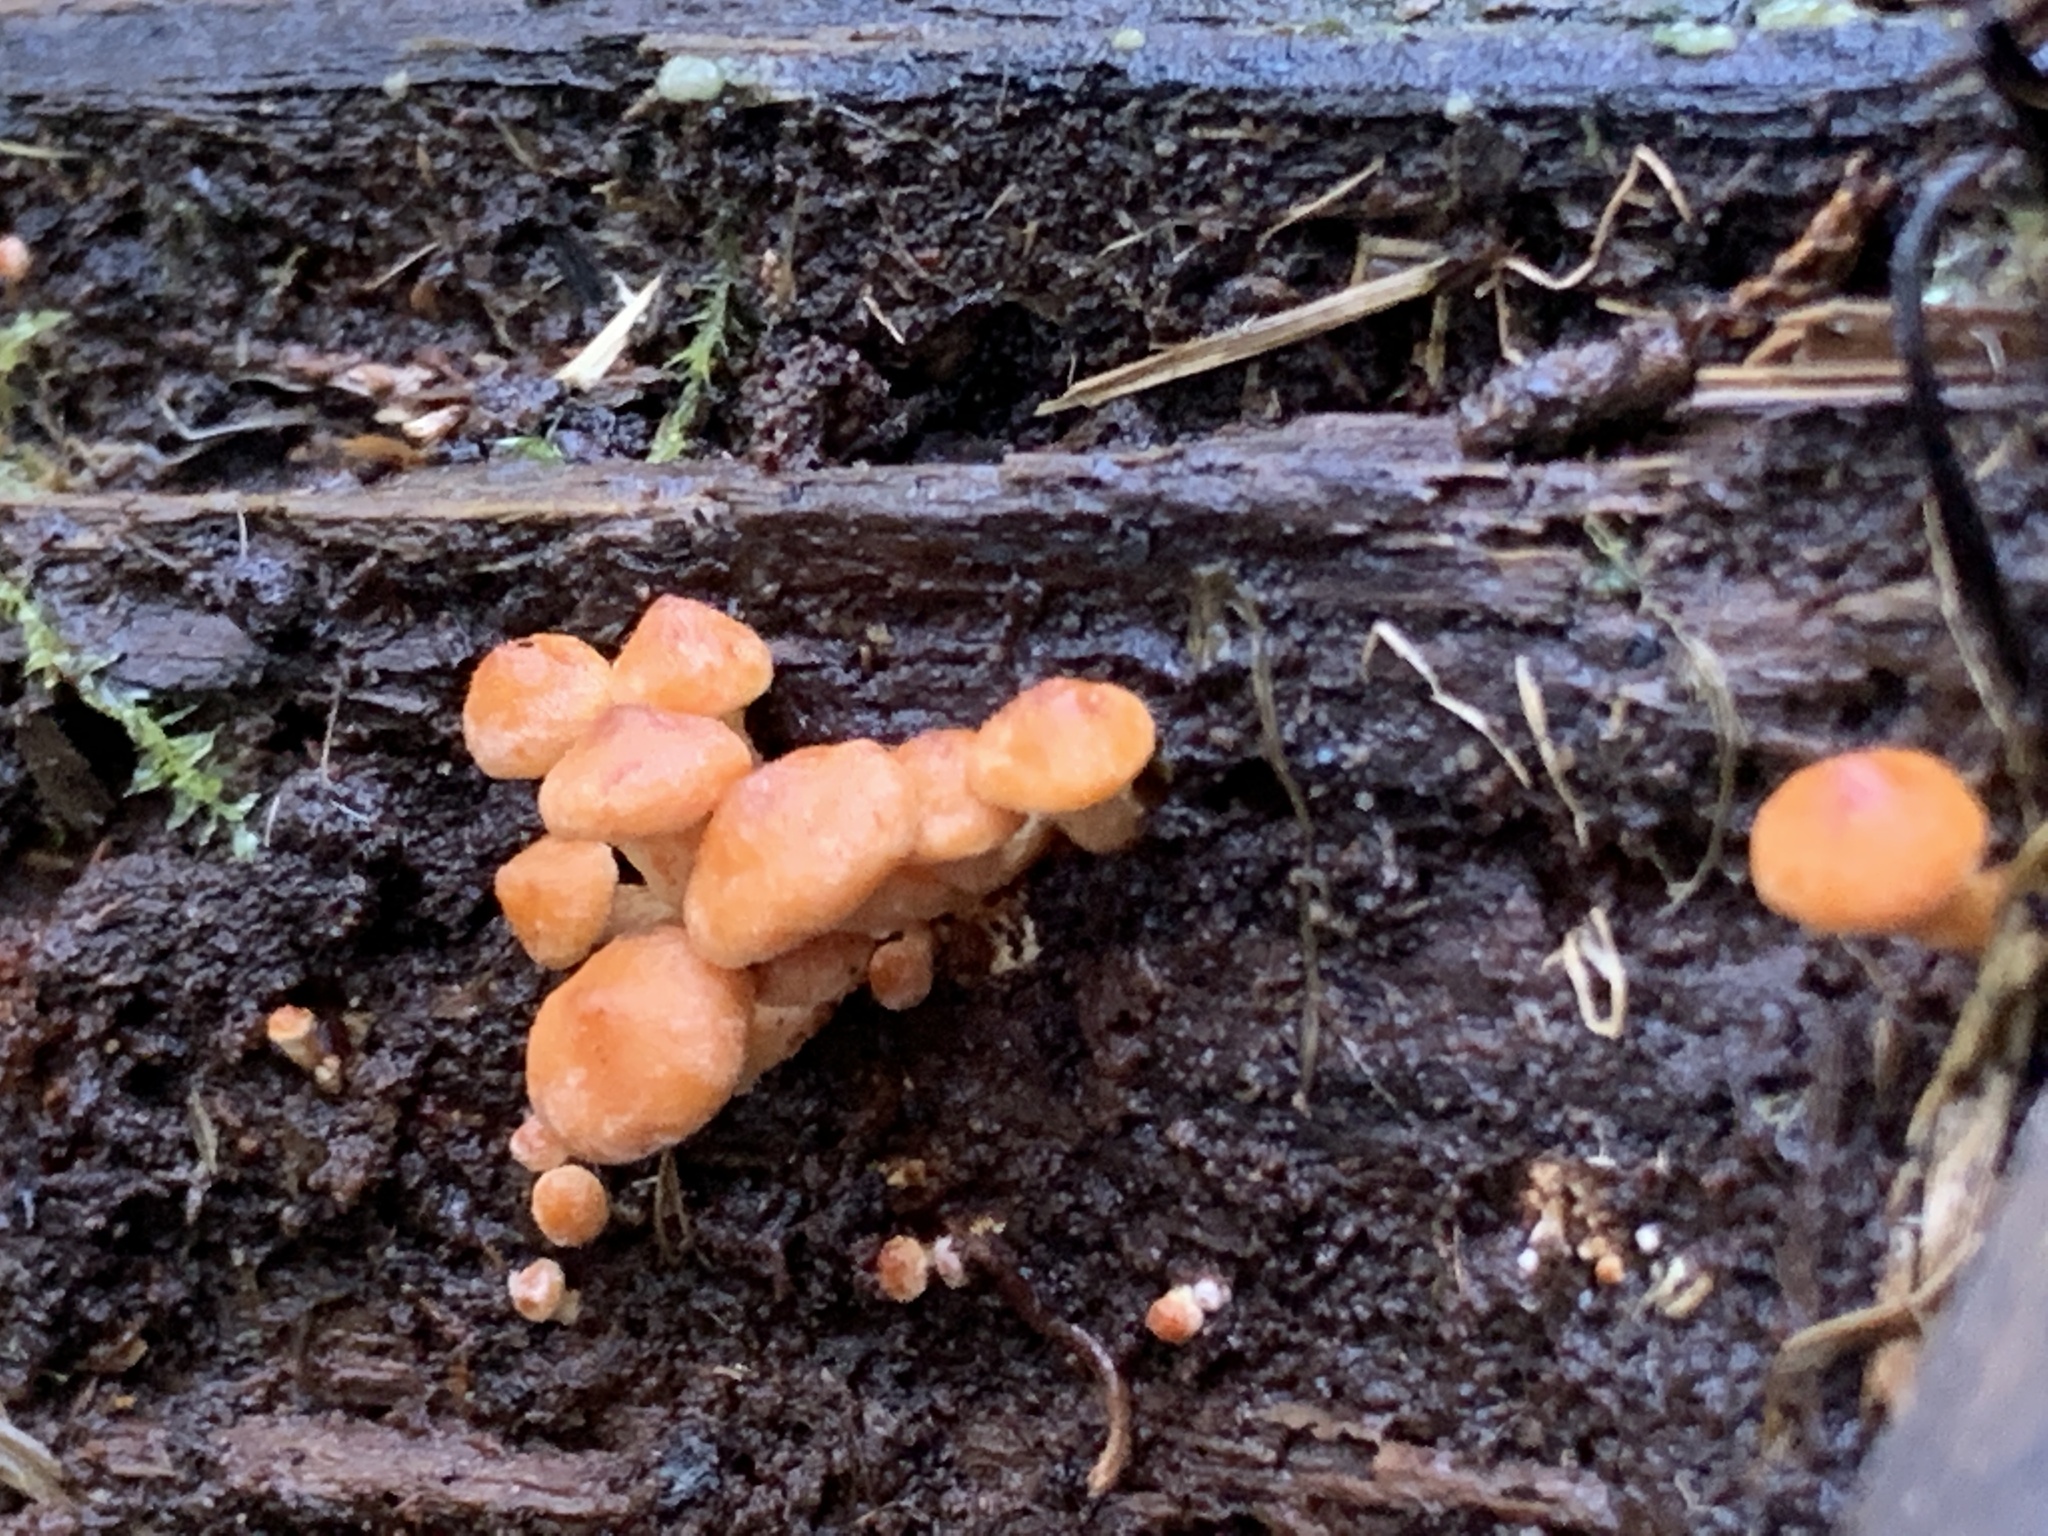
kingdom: Fungi
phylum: Basidiomycota
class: Agaricomycetes
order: Agaricales
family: Strophariaceae
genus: Hypholoma
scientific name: Hypholoma acutum
